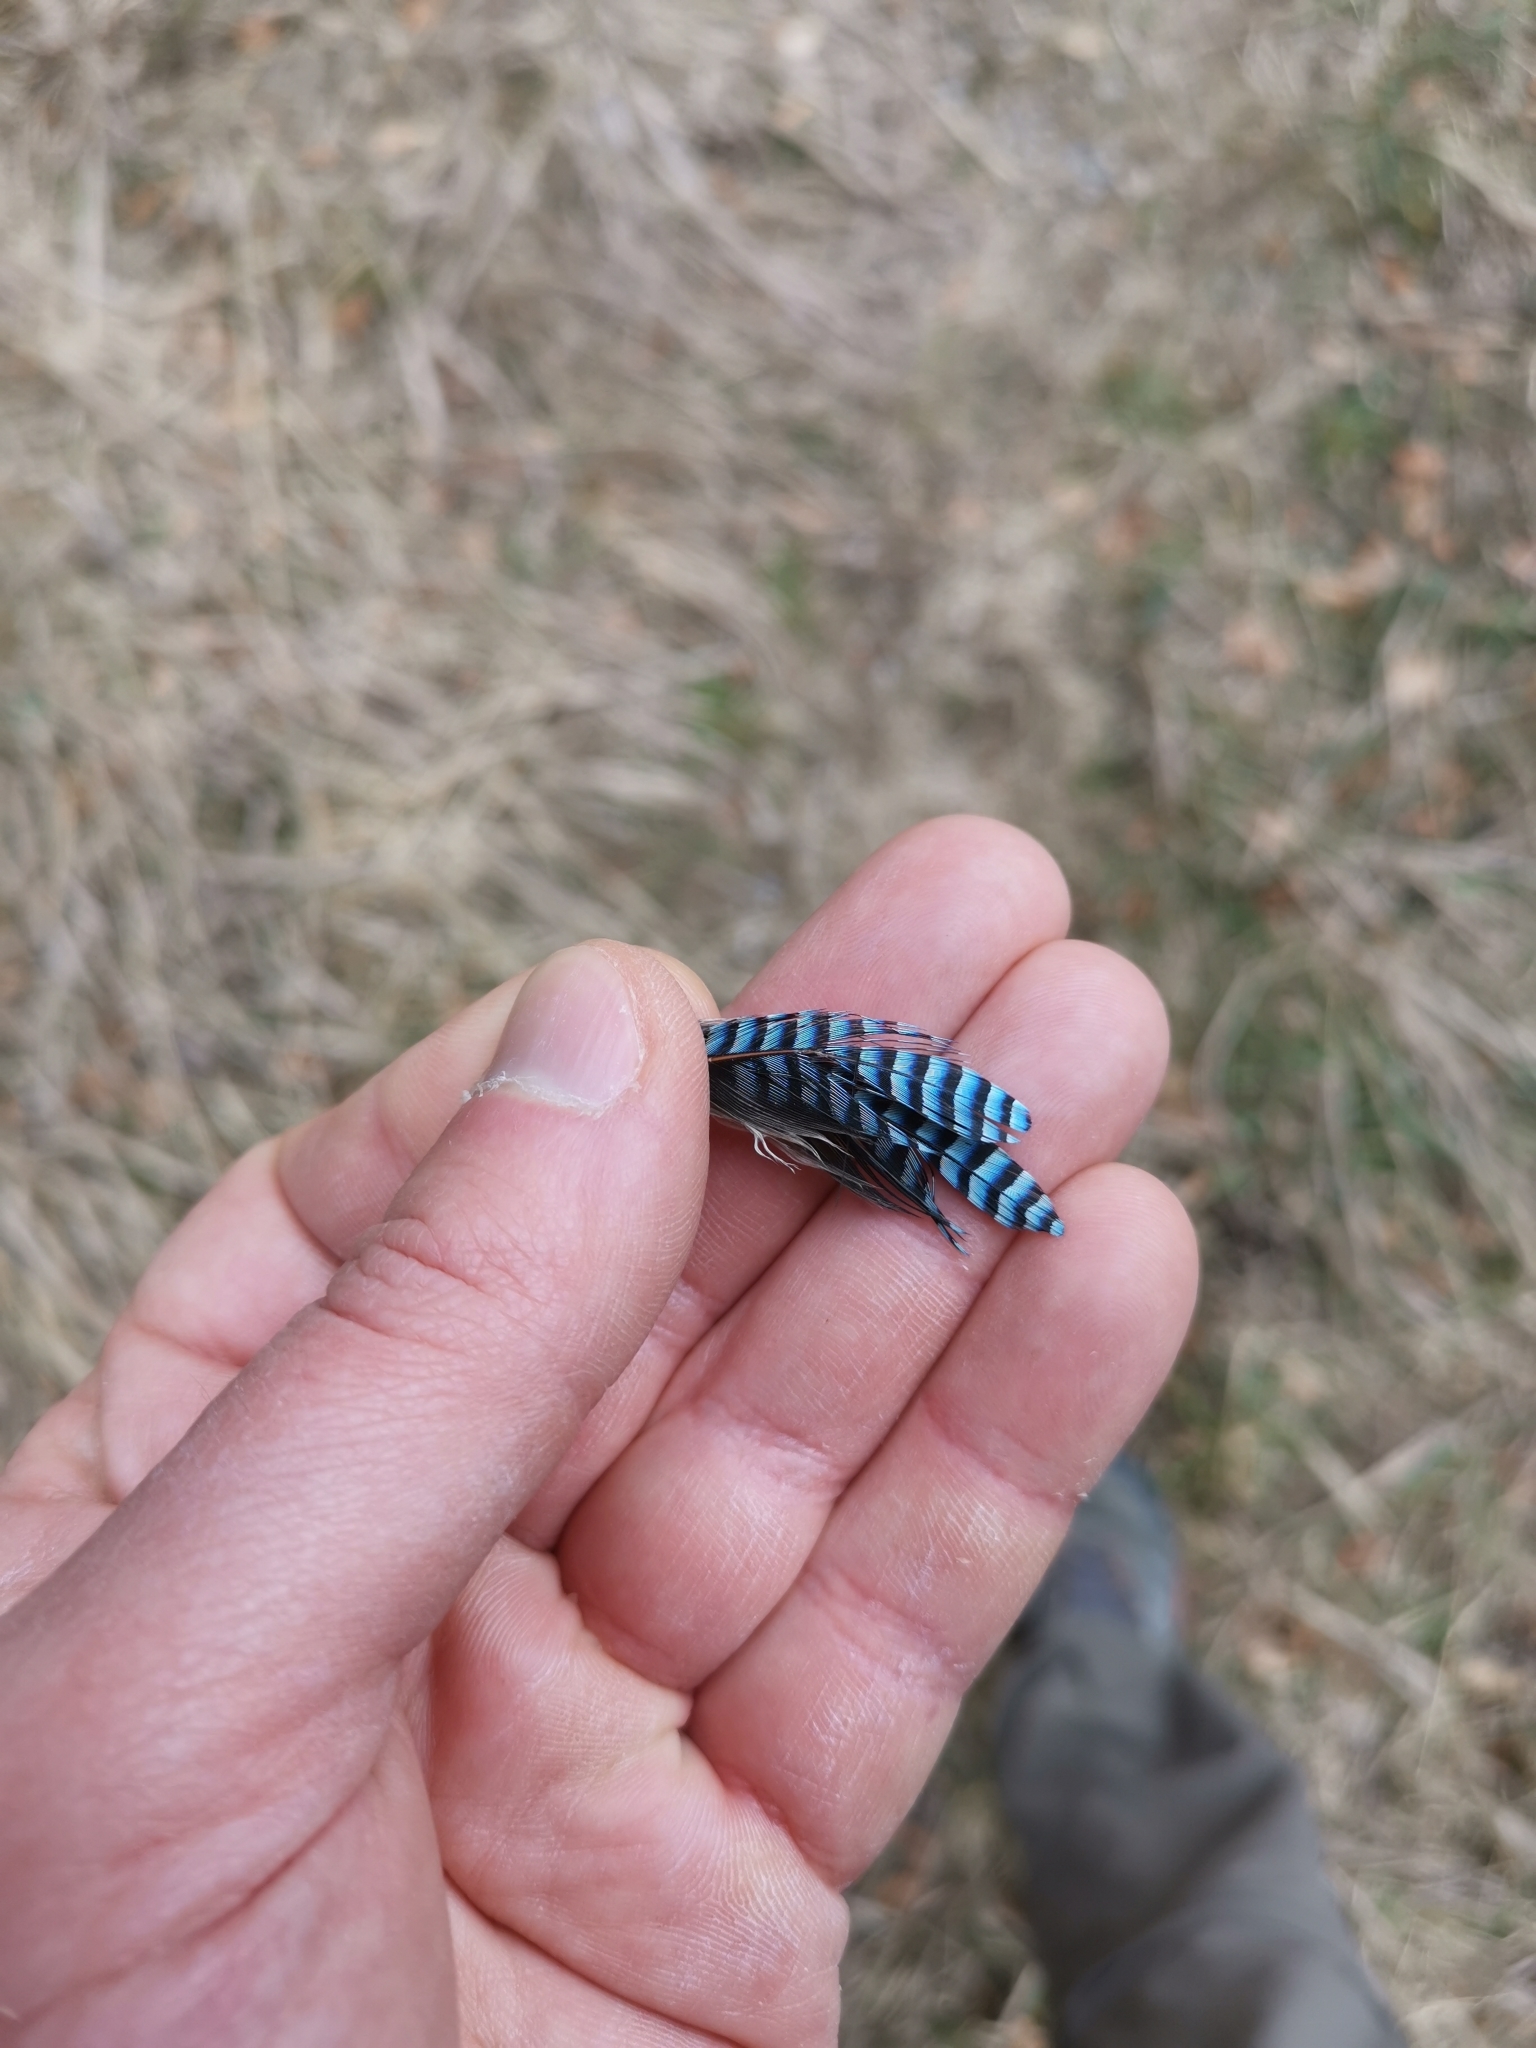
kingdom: Animalia
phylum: Chordata
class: Aves
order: Passeriformes
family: Corvidae
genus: Garrulus
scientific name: Garrulus glandarius
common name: Eurasian jay
